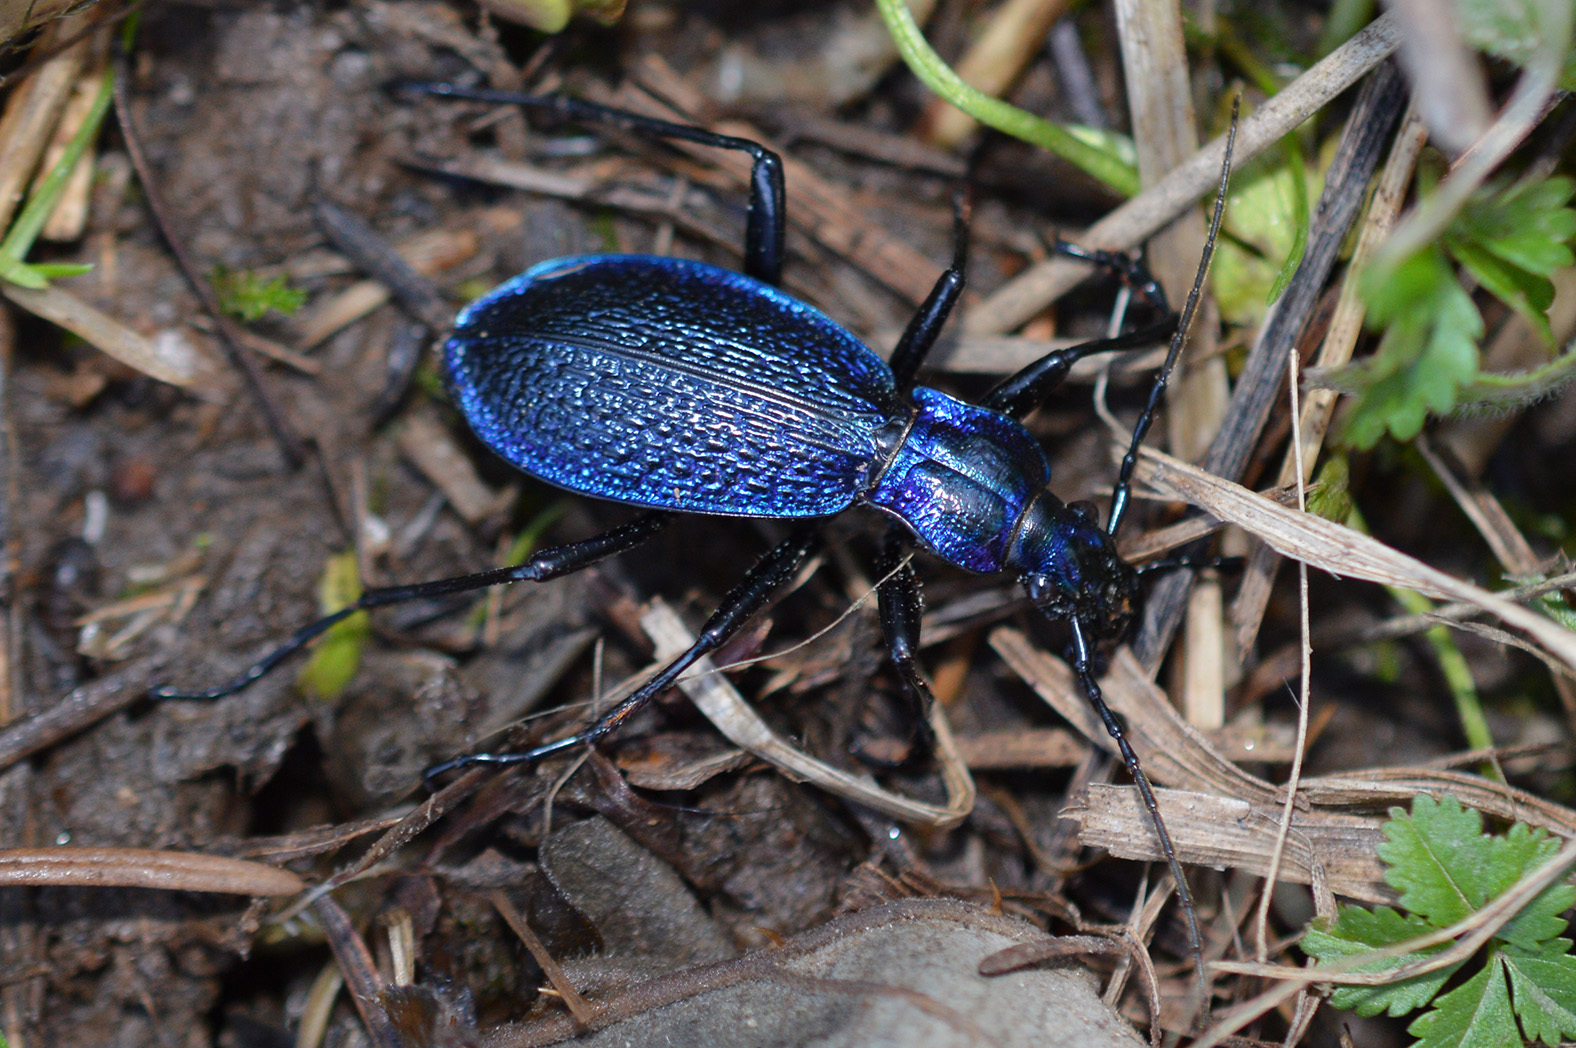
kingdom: Animalia
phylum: Arthropoda
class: Insecta
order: Coleoptera
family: Carabidae
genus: Carabus
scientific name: Carabus intricatus
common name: Blue ground beetle
